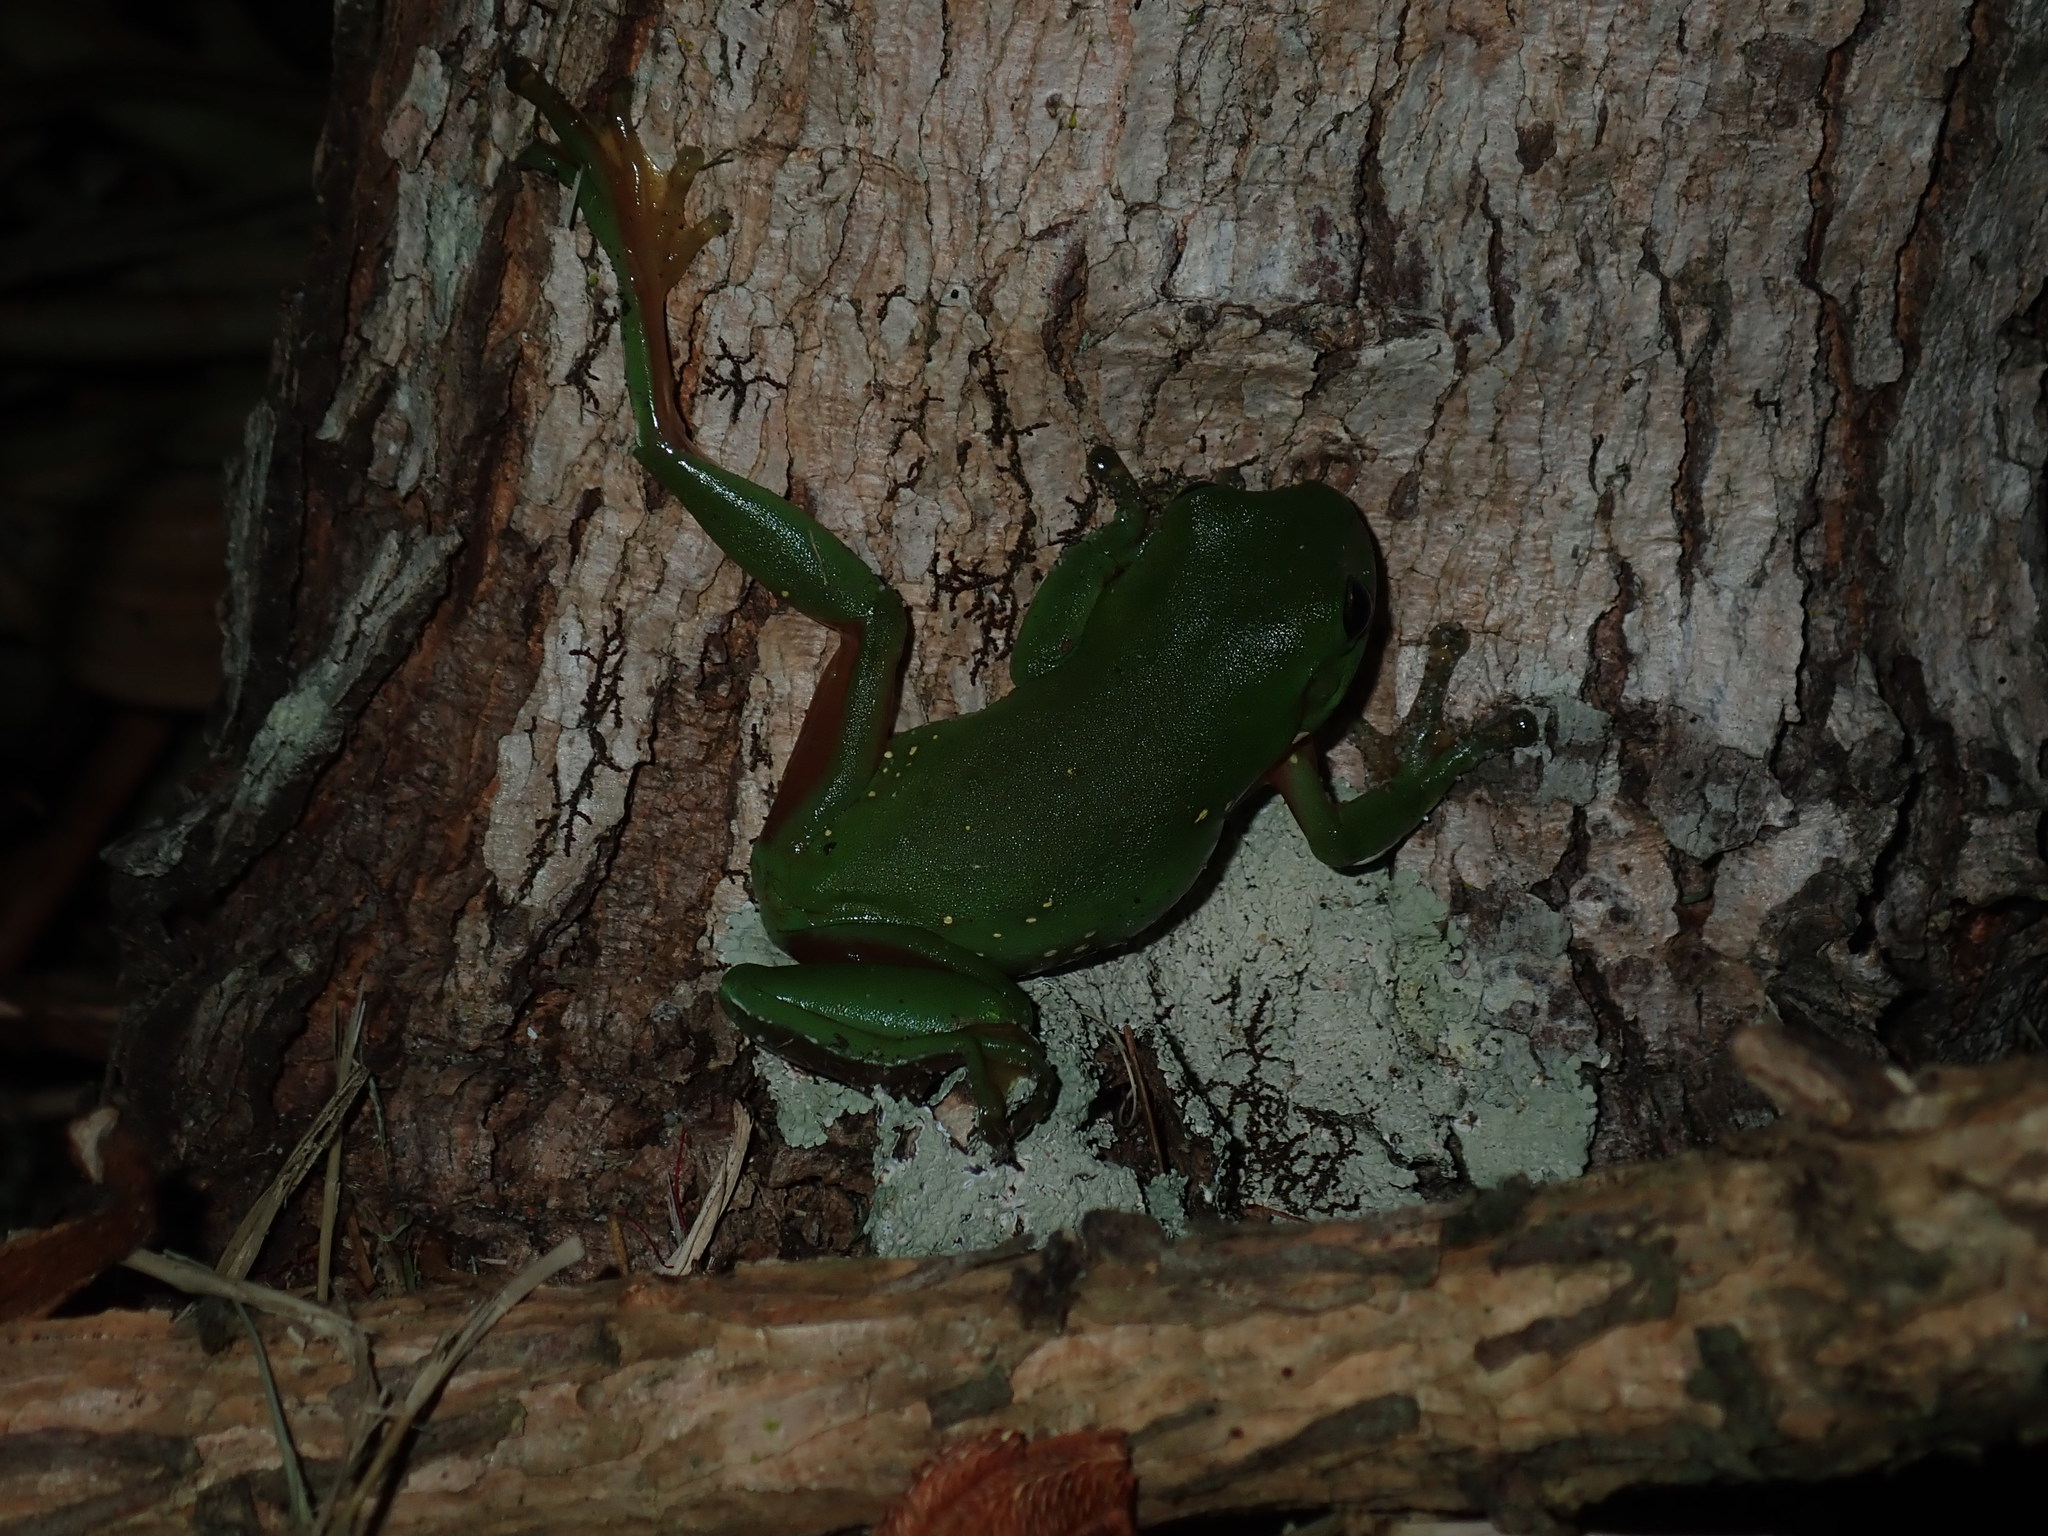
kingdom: Animalia
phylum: Chordata
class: Amphibia
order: Anura
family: Pelodryadidae
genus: Ranoidea
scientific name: Ranoidea caerulea
